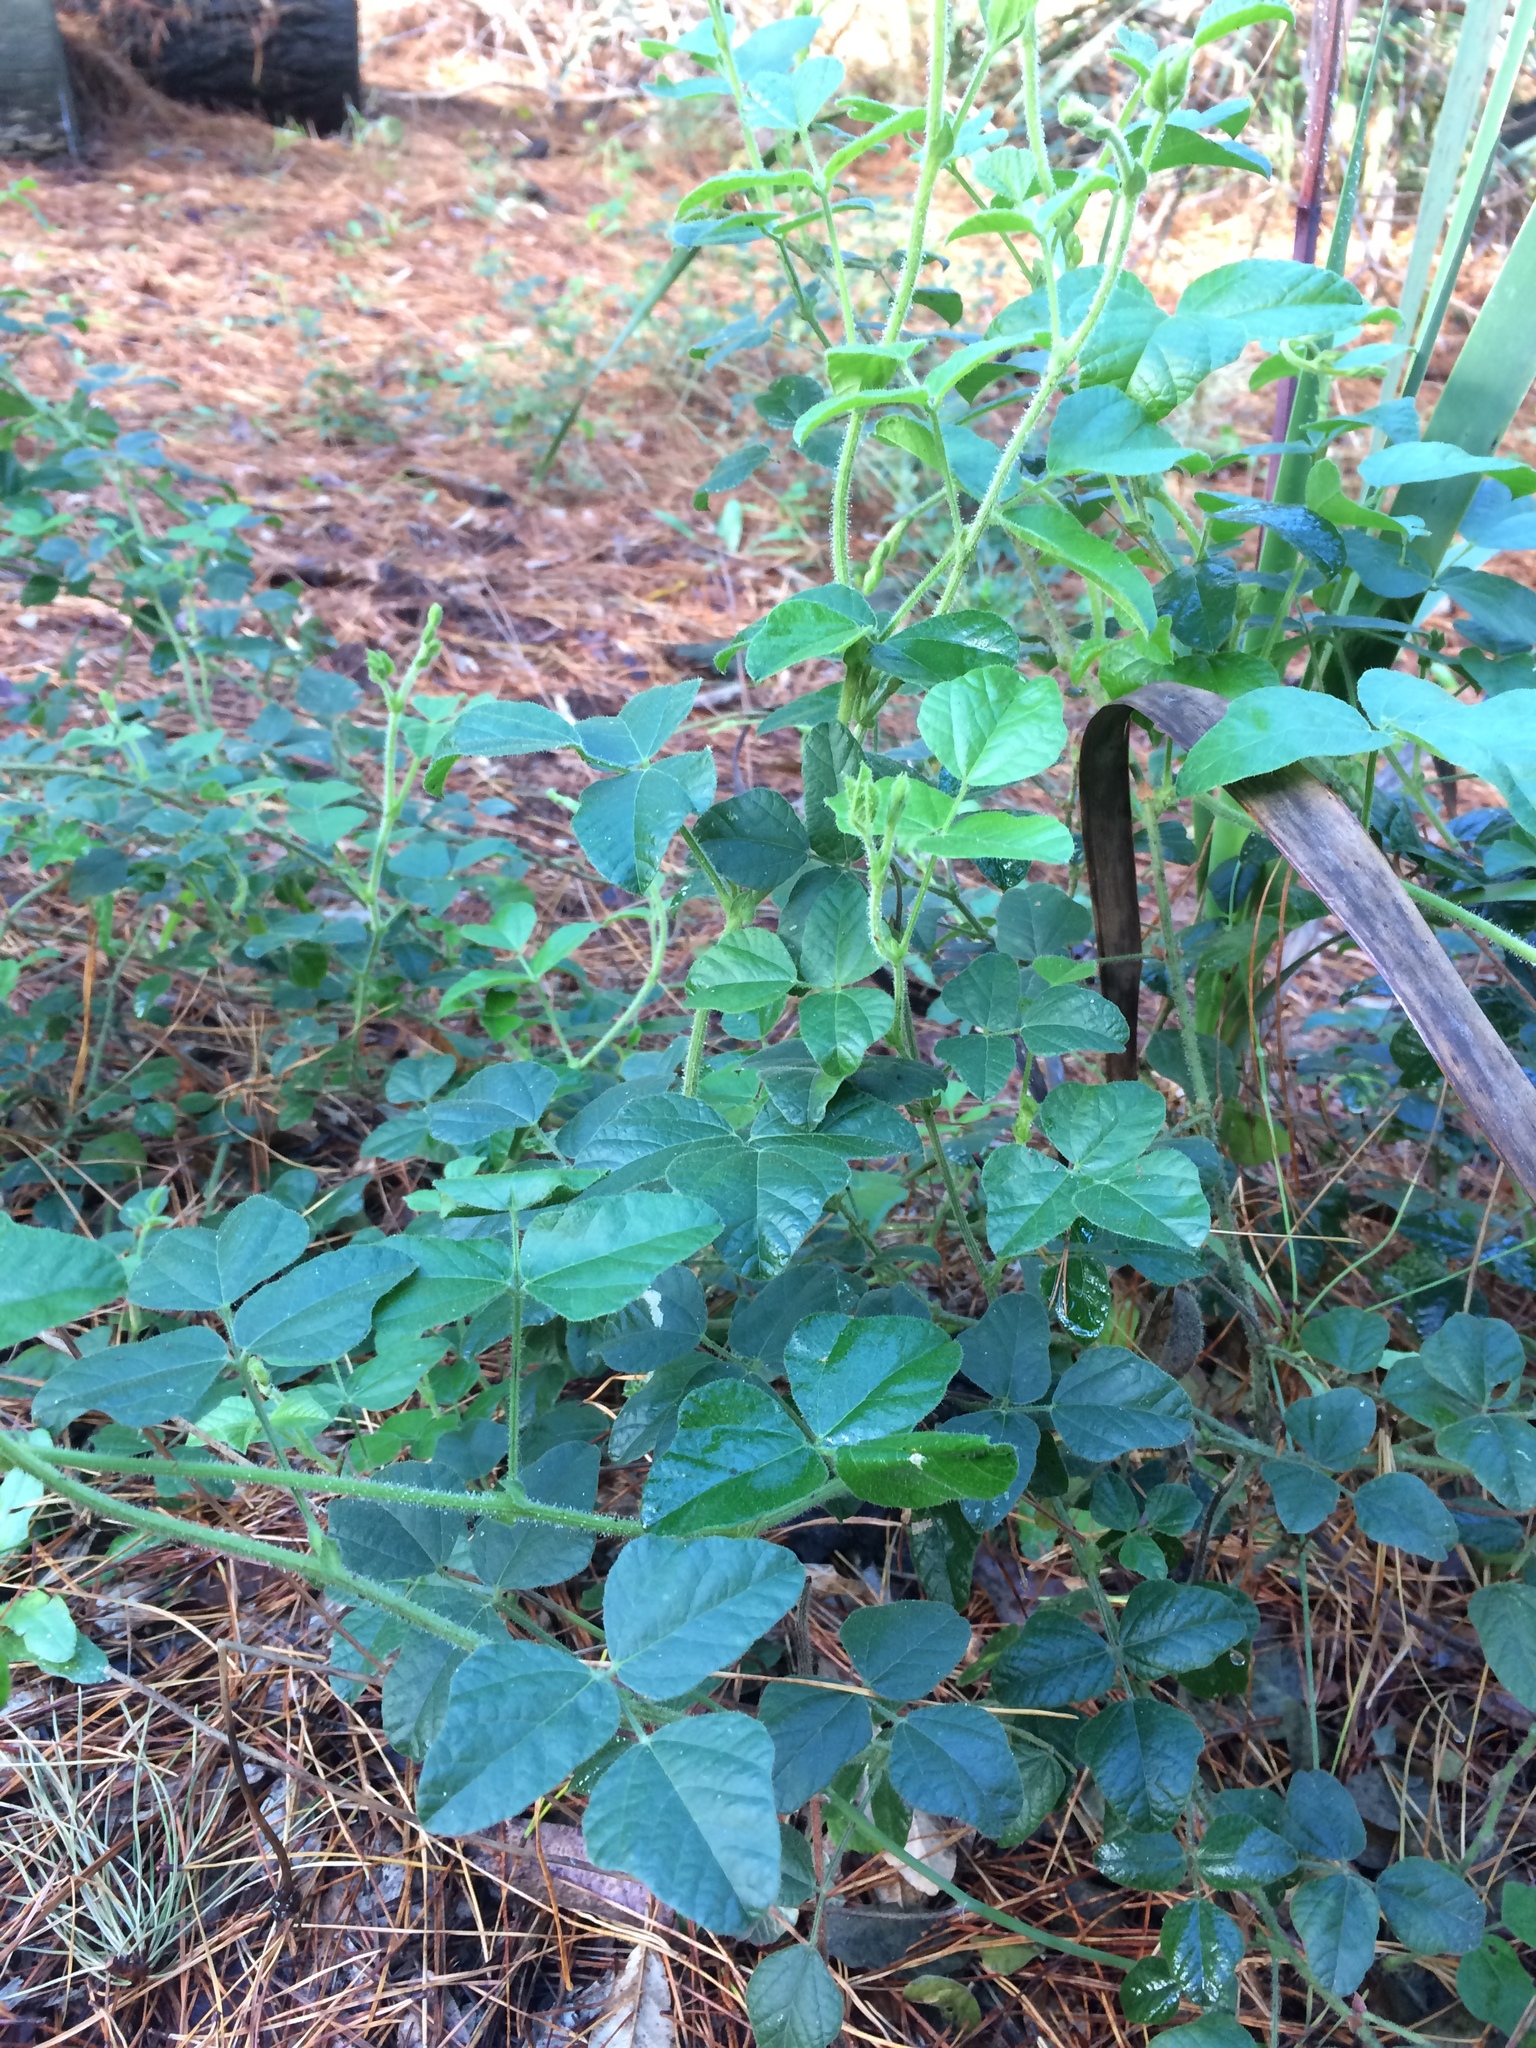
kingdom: Plantae
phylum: Tracheophyta
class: Magnoliopsida
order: Fabales
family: Fabaceae
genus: Bolusafra
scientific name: Bolusafra bituminosa
